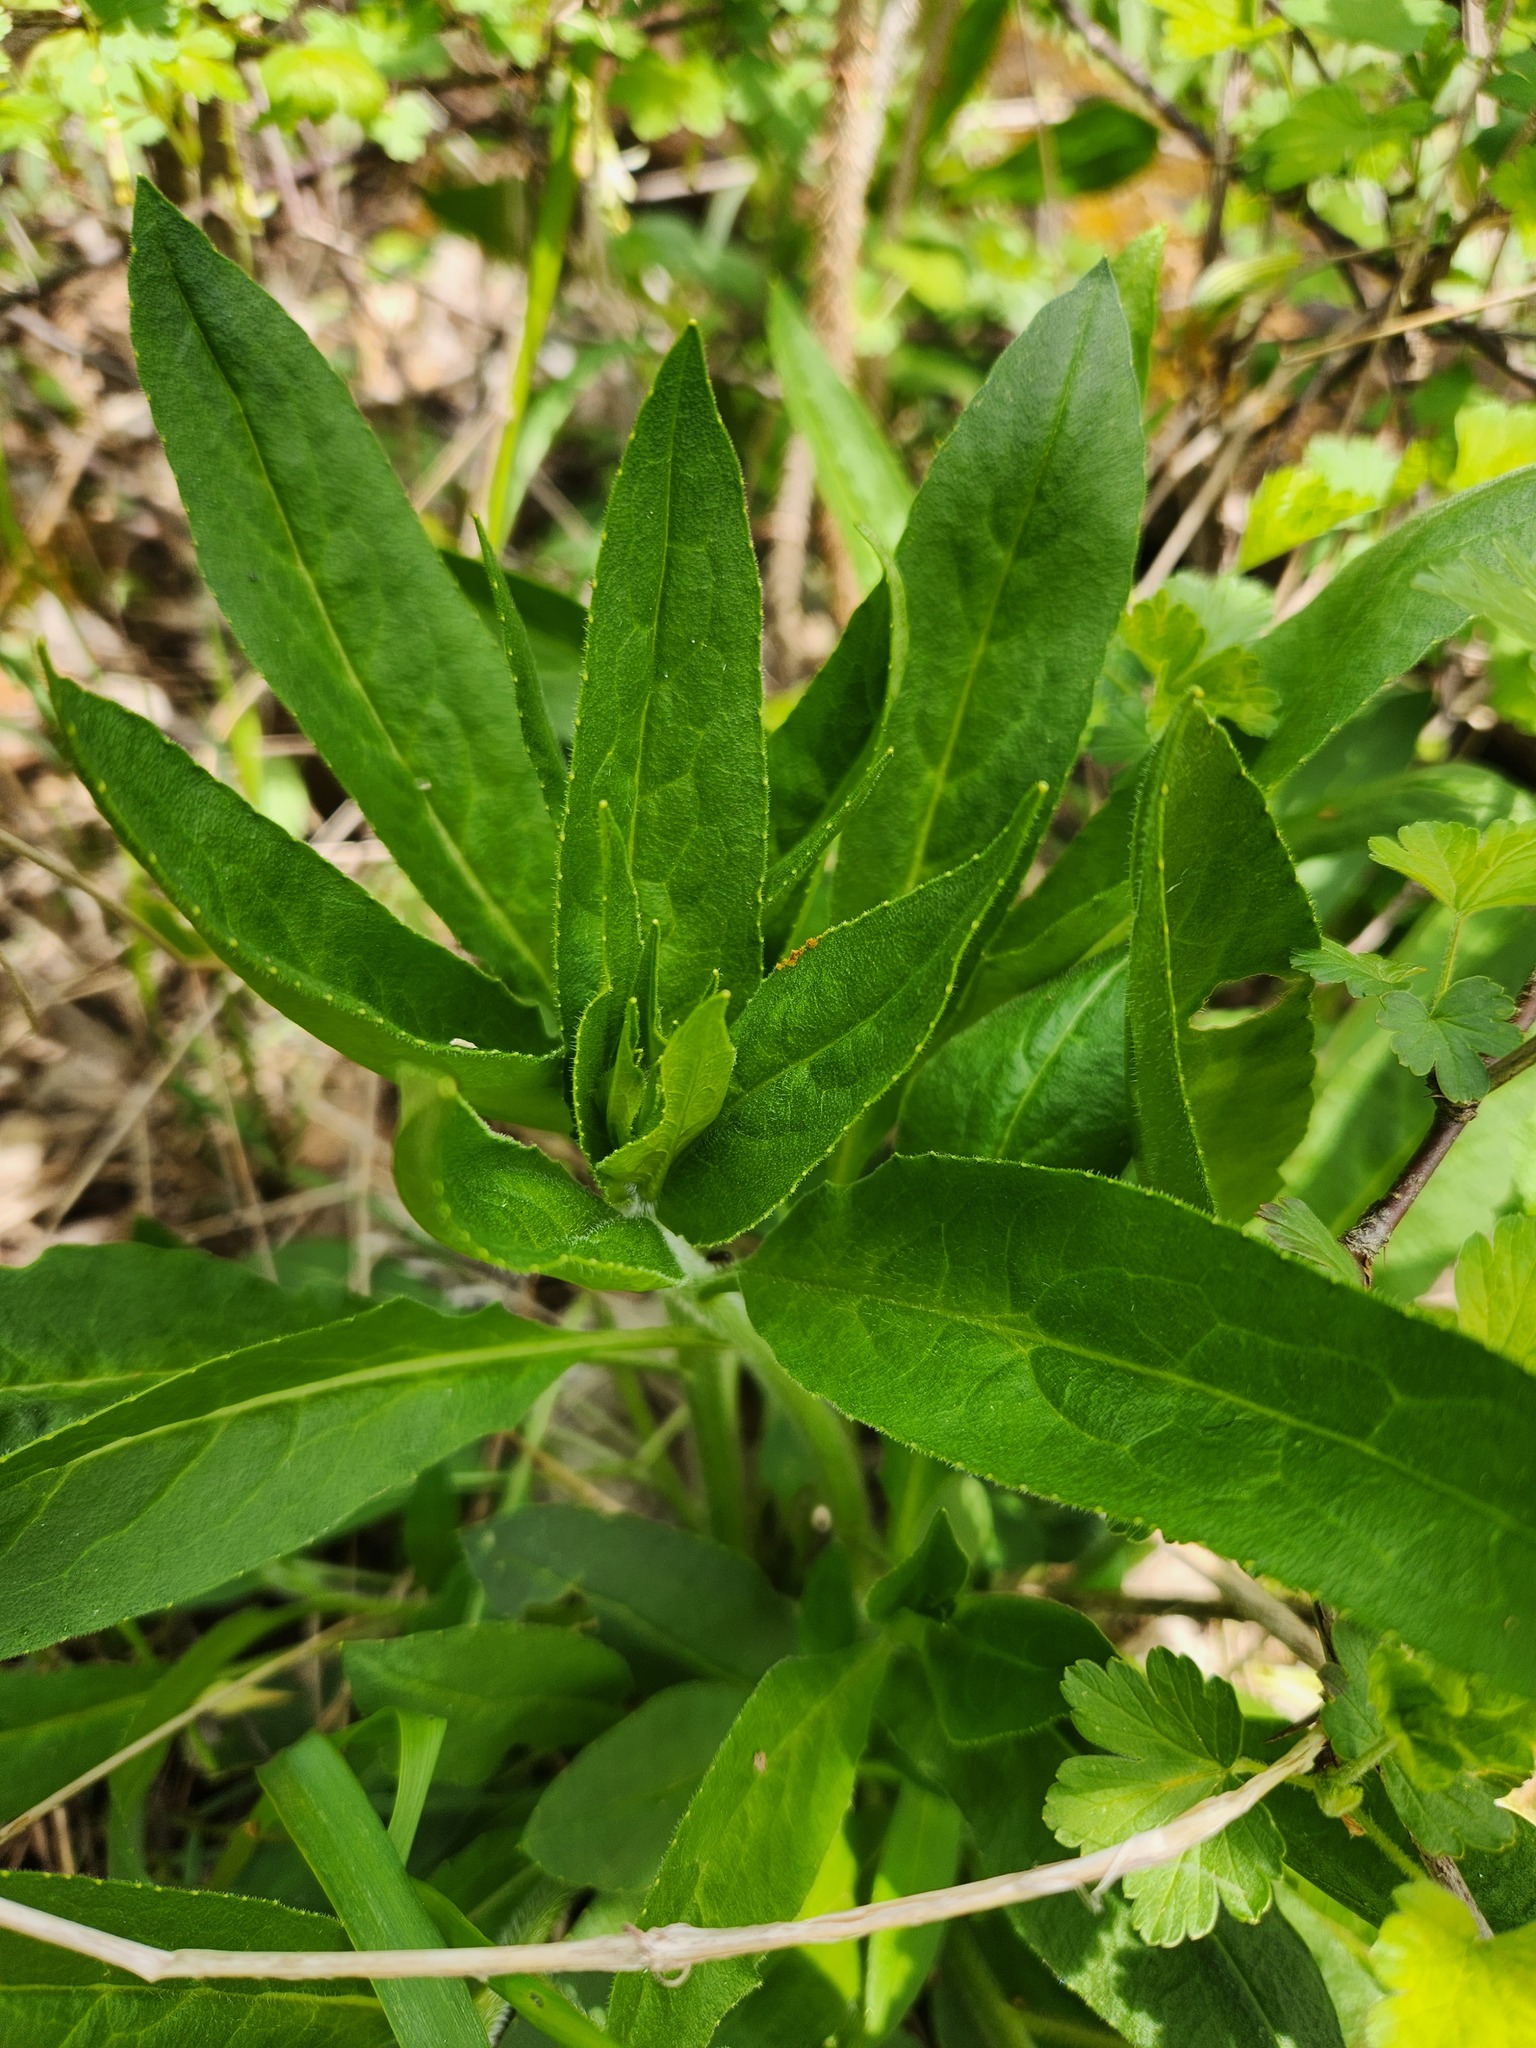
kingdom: Plantae
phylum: Tracheophyta
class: Magnoliopsida
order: Brassicales
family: Brassicaceae
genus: Hesperis
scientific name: Hesperis matronalis
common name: Dame's-violet
